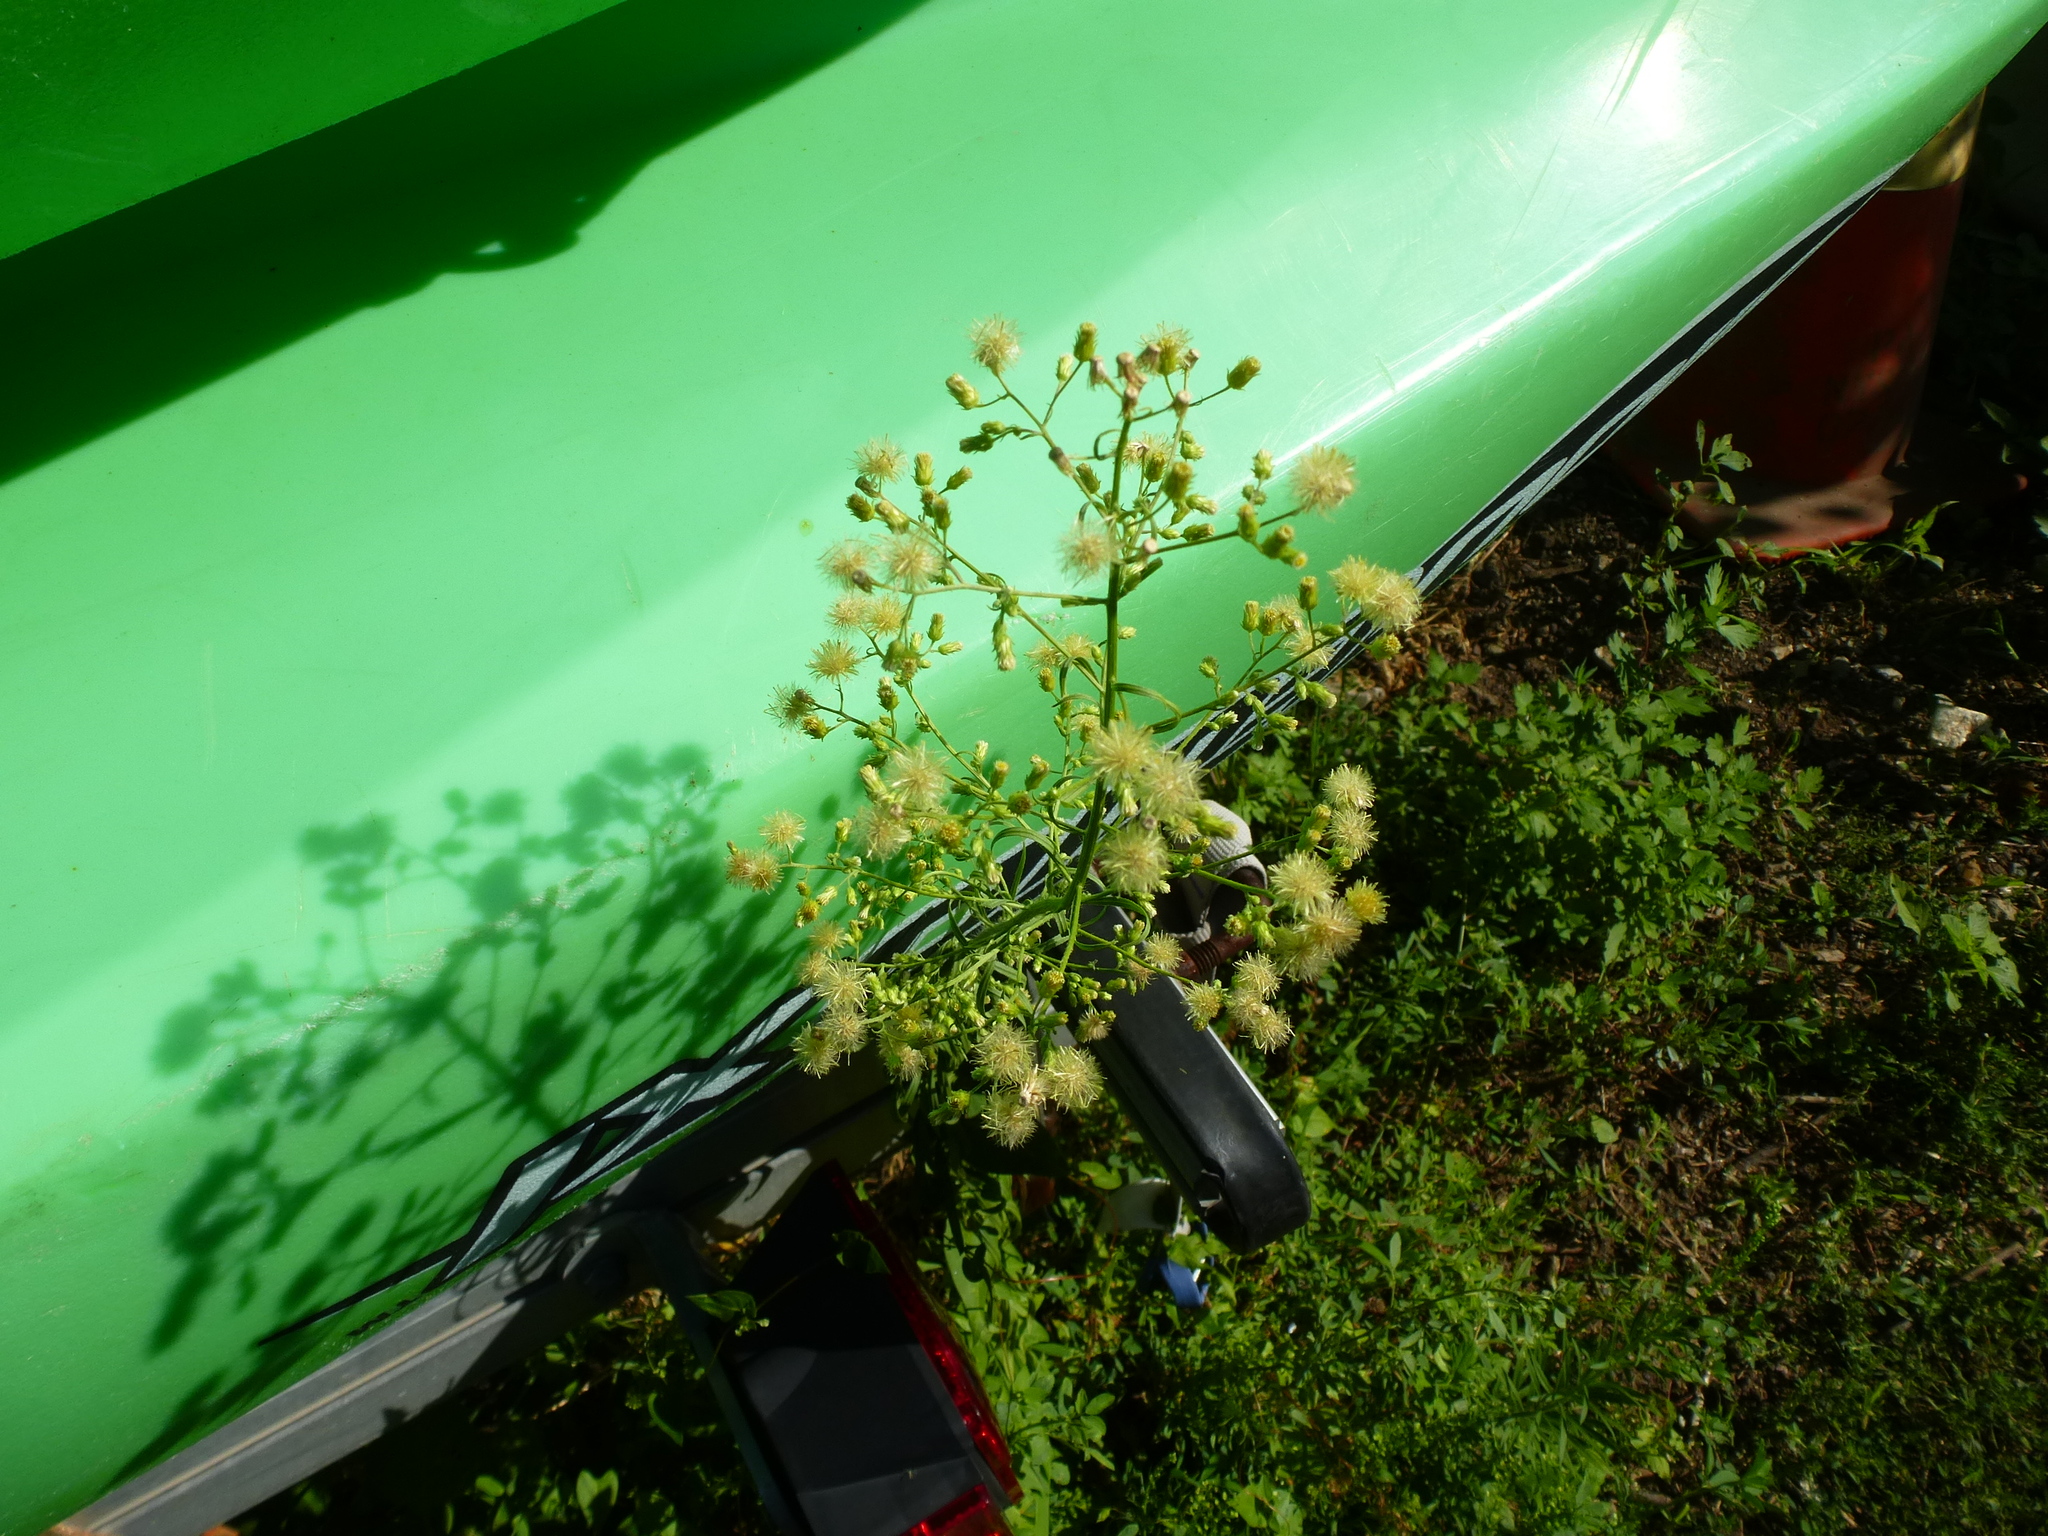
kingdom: Plantae
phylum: Tracheophyta
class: Magnoliopsida
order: Asterales
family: Asteraceae
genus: Erigeron
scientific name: Erigeron canadensis
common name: Canadian fleabane
